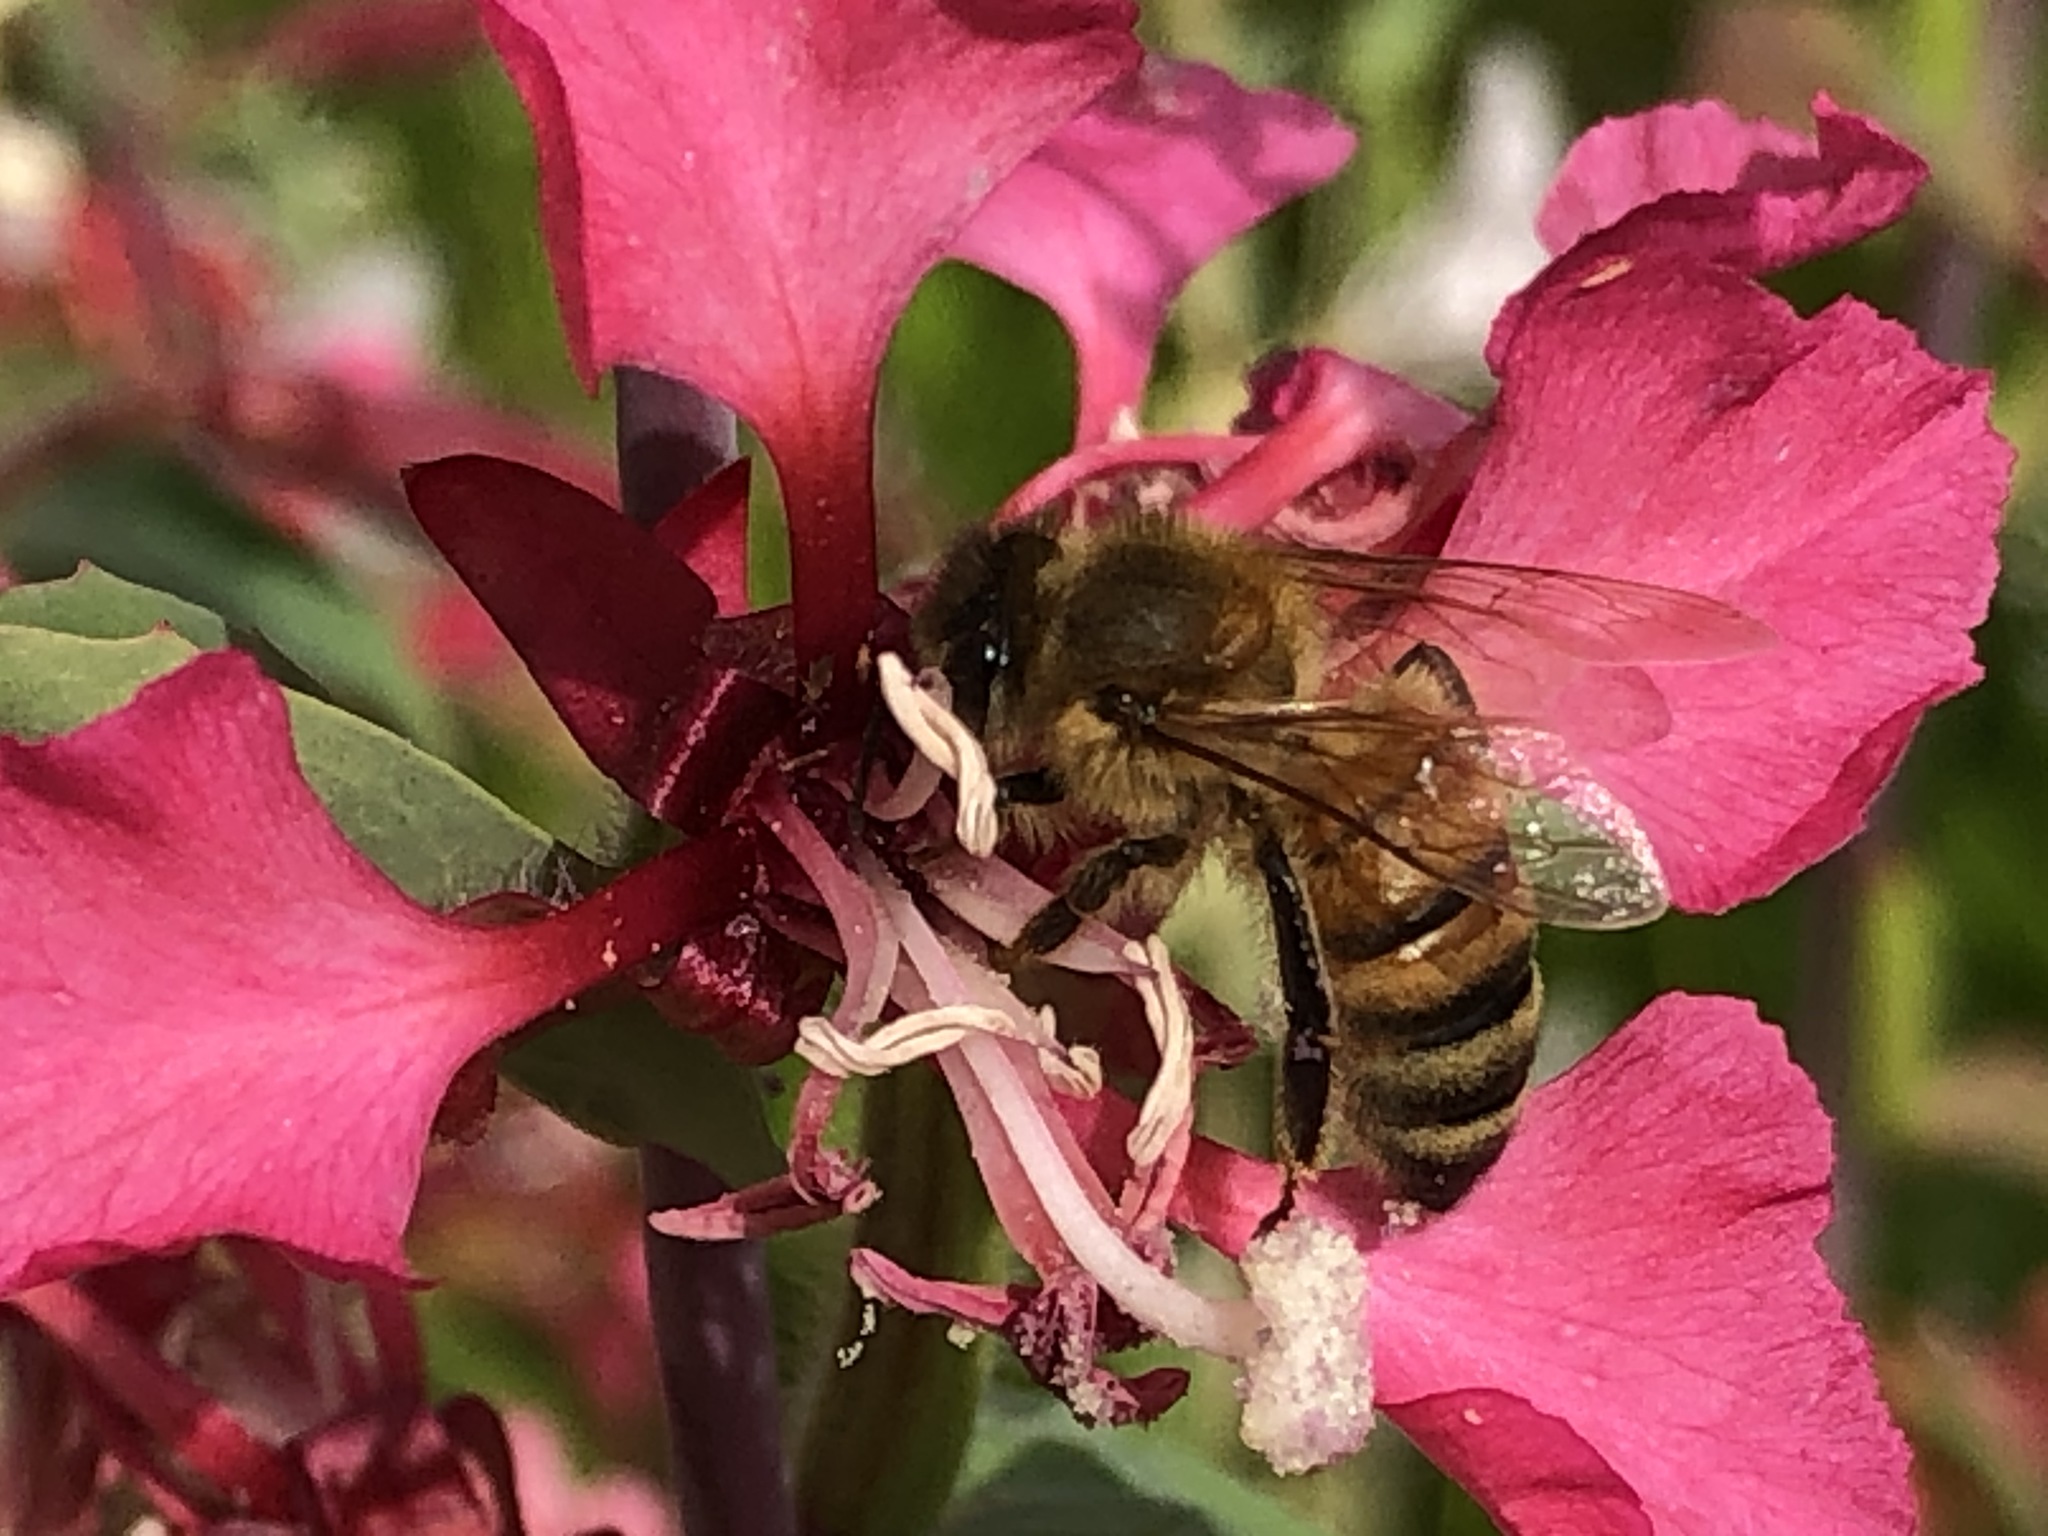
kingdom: Animalia
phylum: Arthropoda
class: Insecta
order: Hymenoptera
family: Apidae
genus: Apis
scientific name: Apis mellifera
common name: Honey bee
